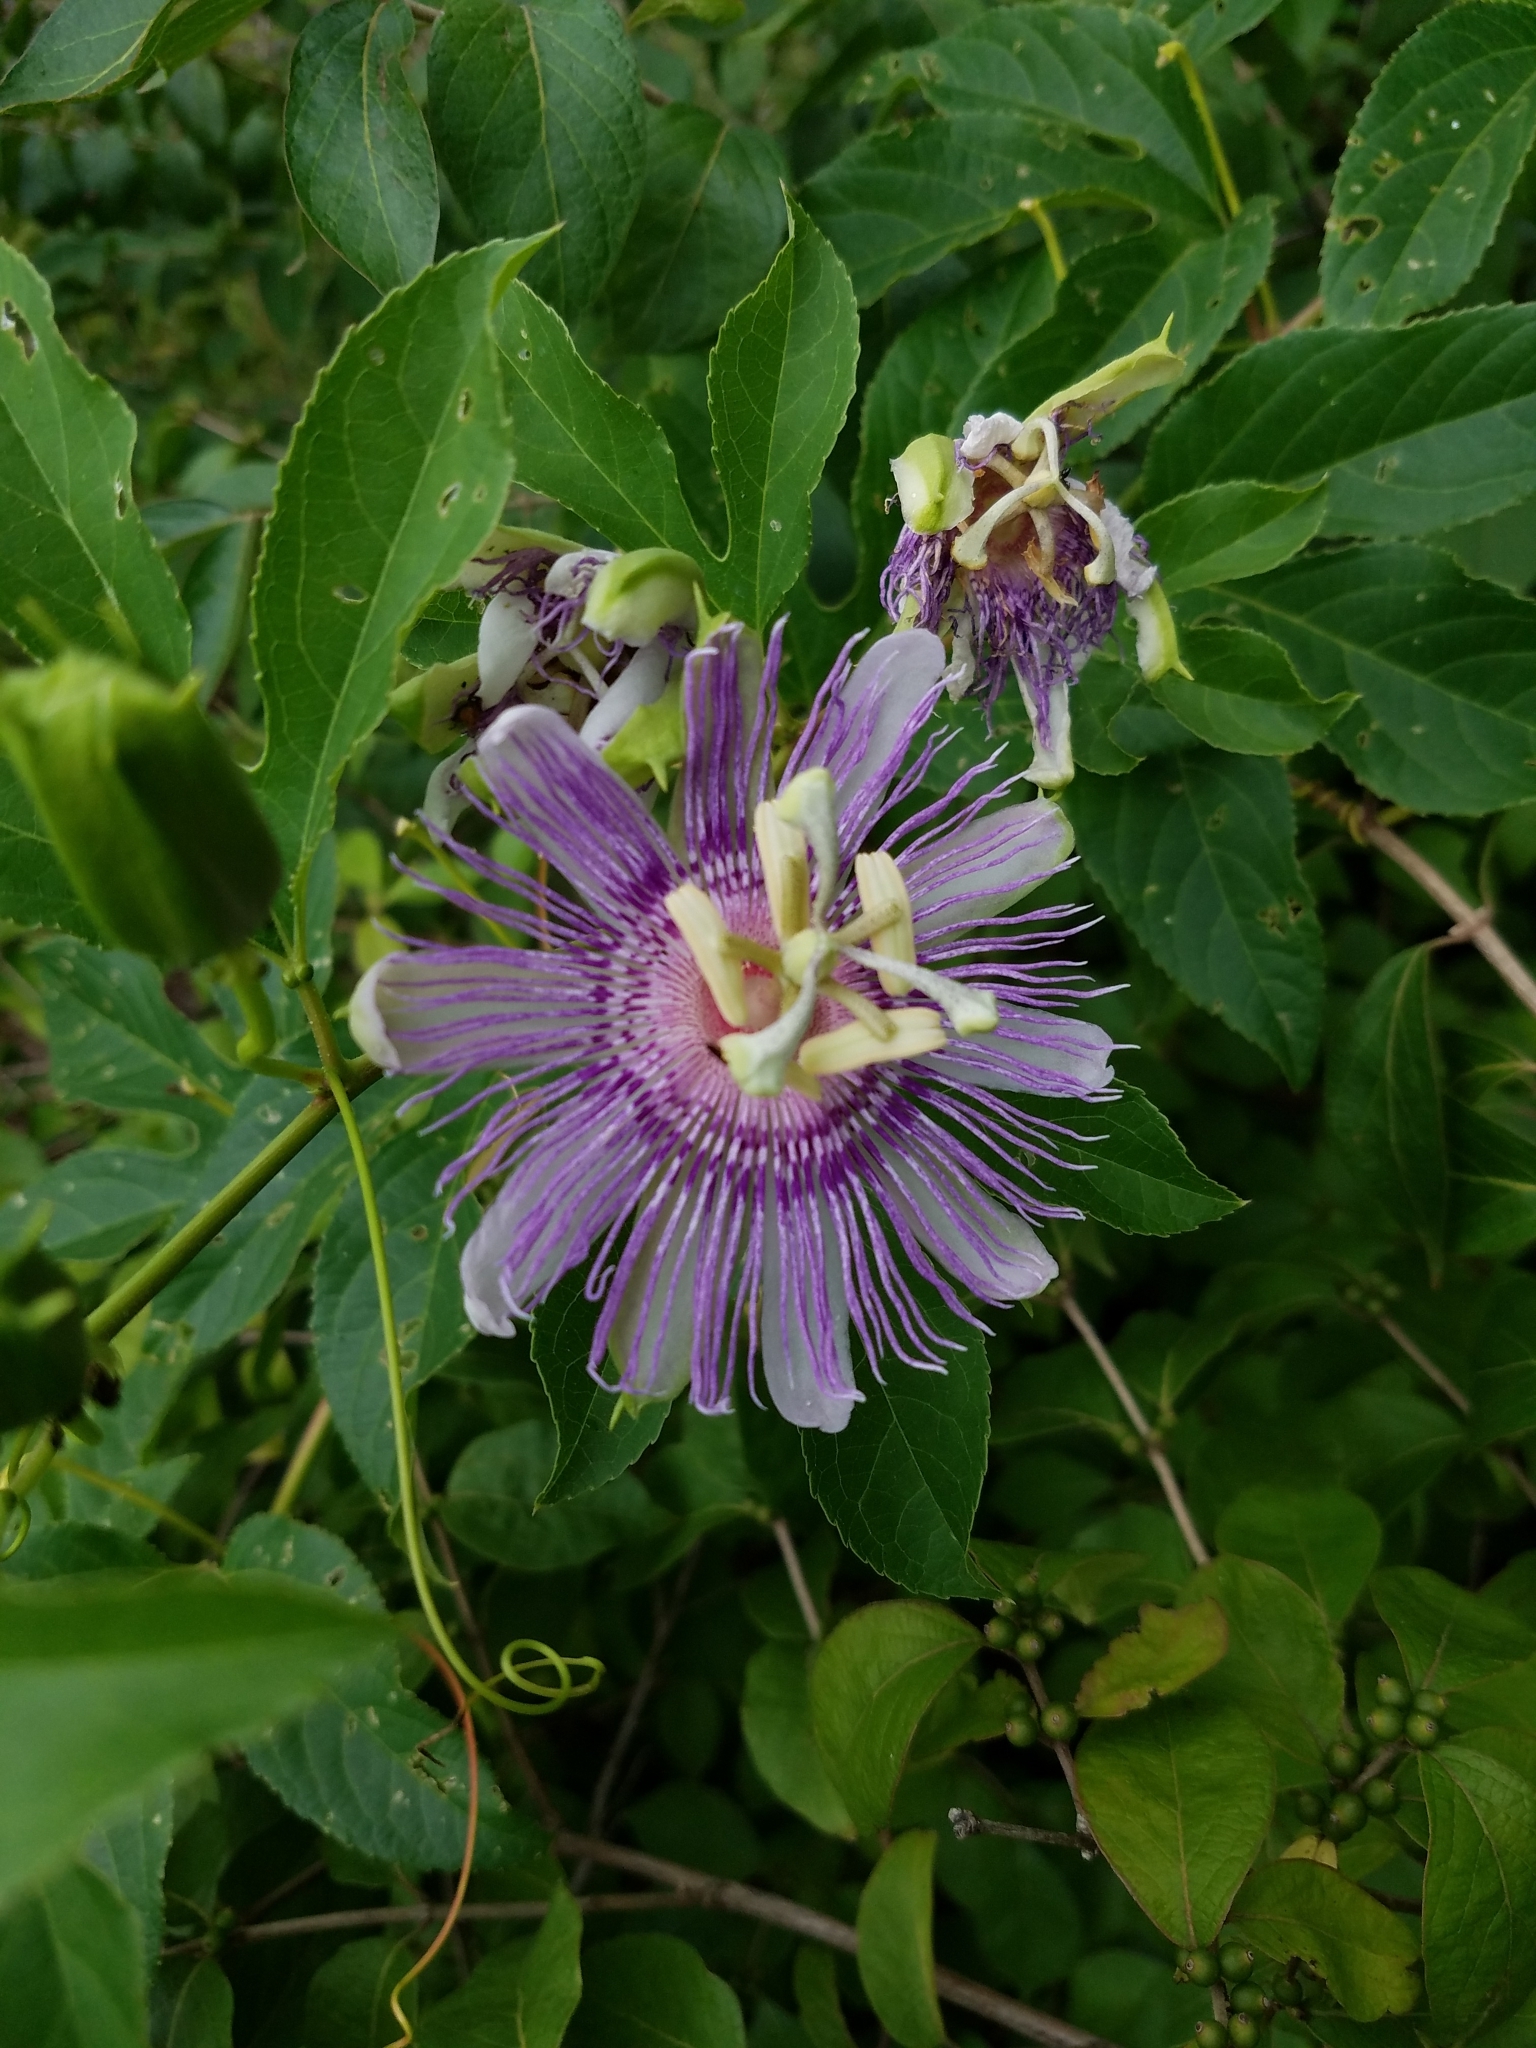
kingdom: Plantae
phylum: Tracheophyta
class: Magnoliopsida
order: Malpighiales
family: Passifloraceae
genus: Passiflora
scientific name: Passiflora incarnata
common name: Apricot-vine
